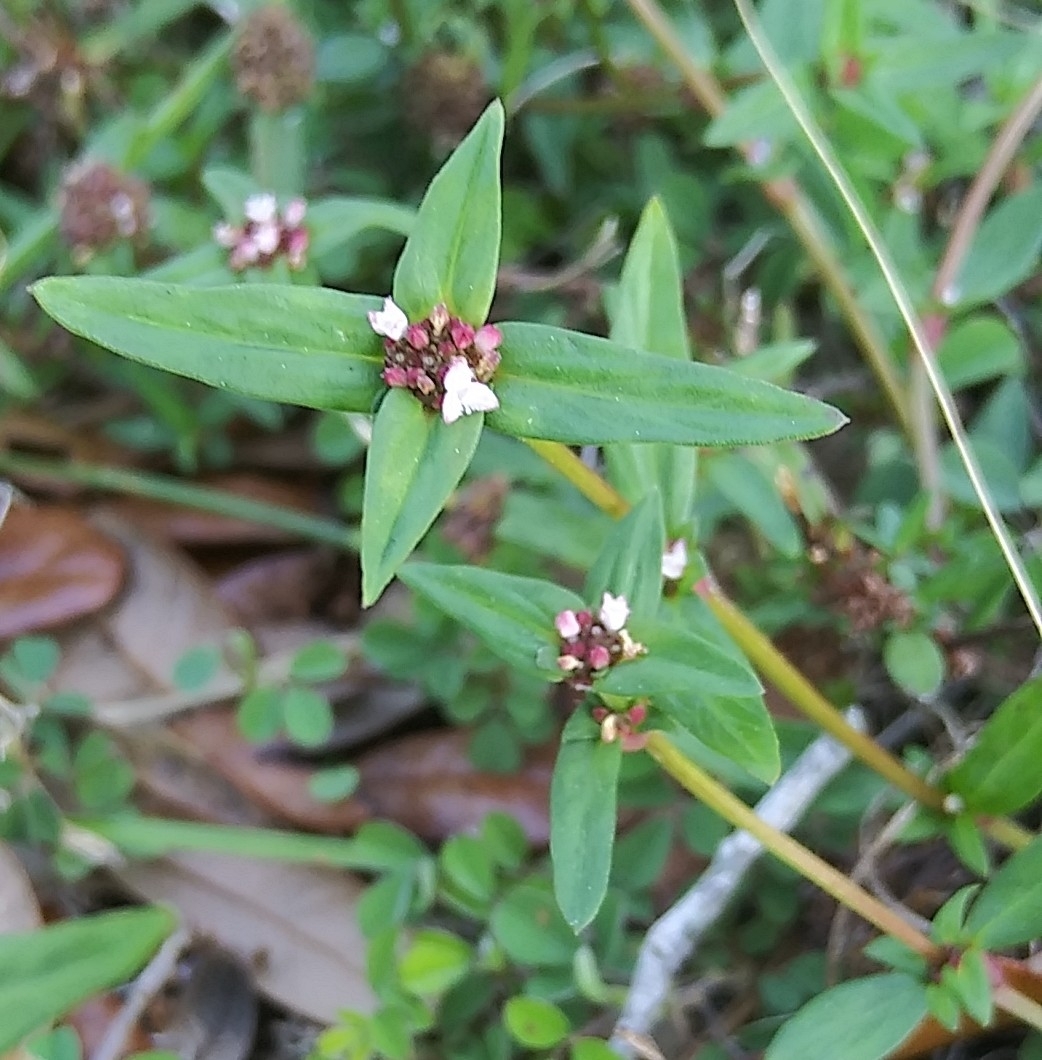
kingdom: Plantae
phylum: Tracheophyta
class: Magnoliopsida
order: Gentianales
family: Rubiaceae
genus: Spermacoce
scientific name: Spermacoce remota
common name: Woodland false buttonweed
